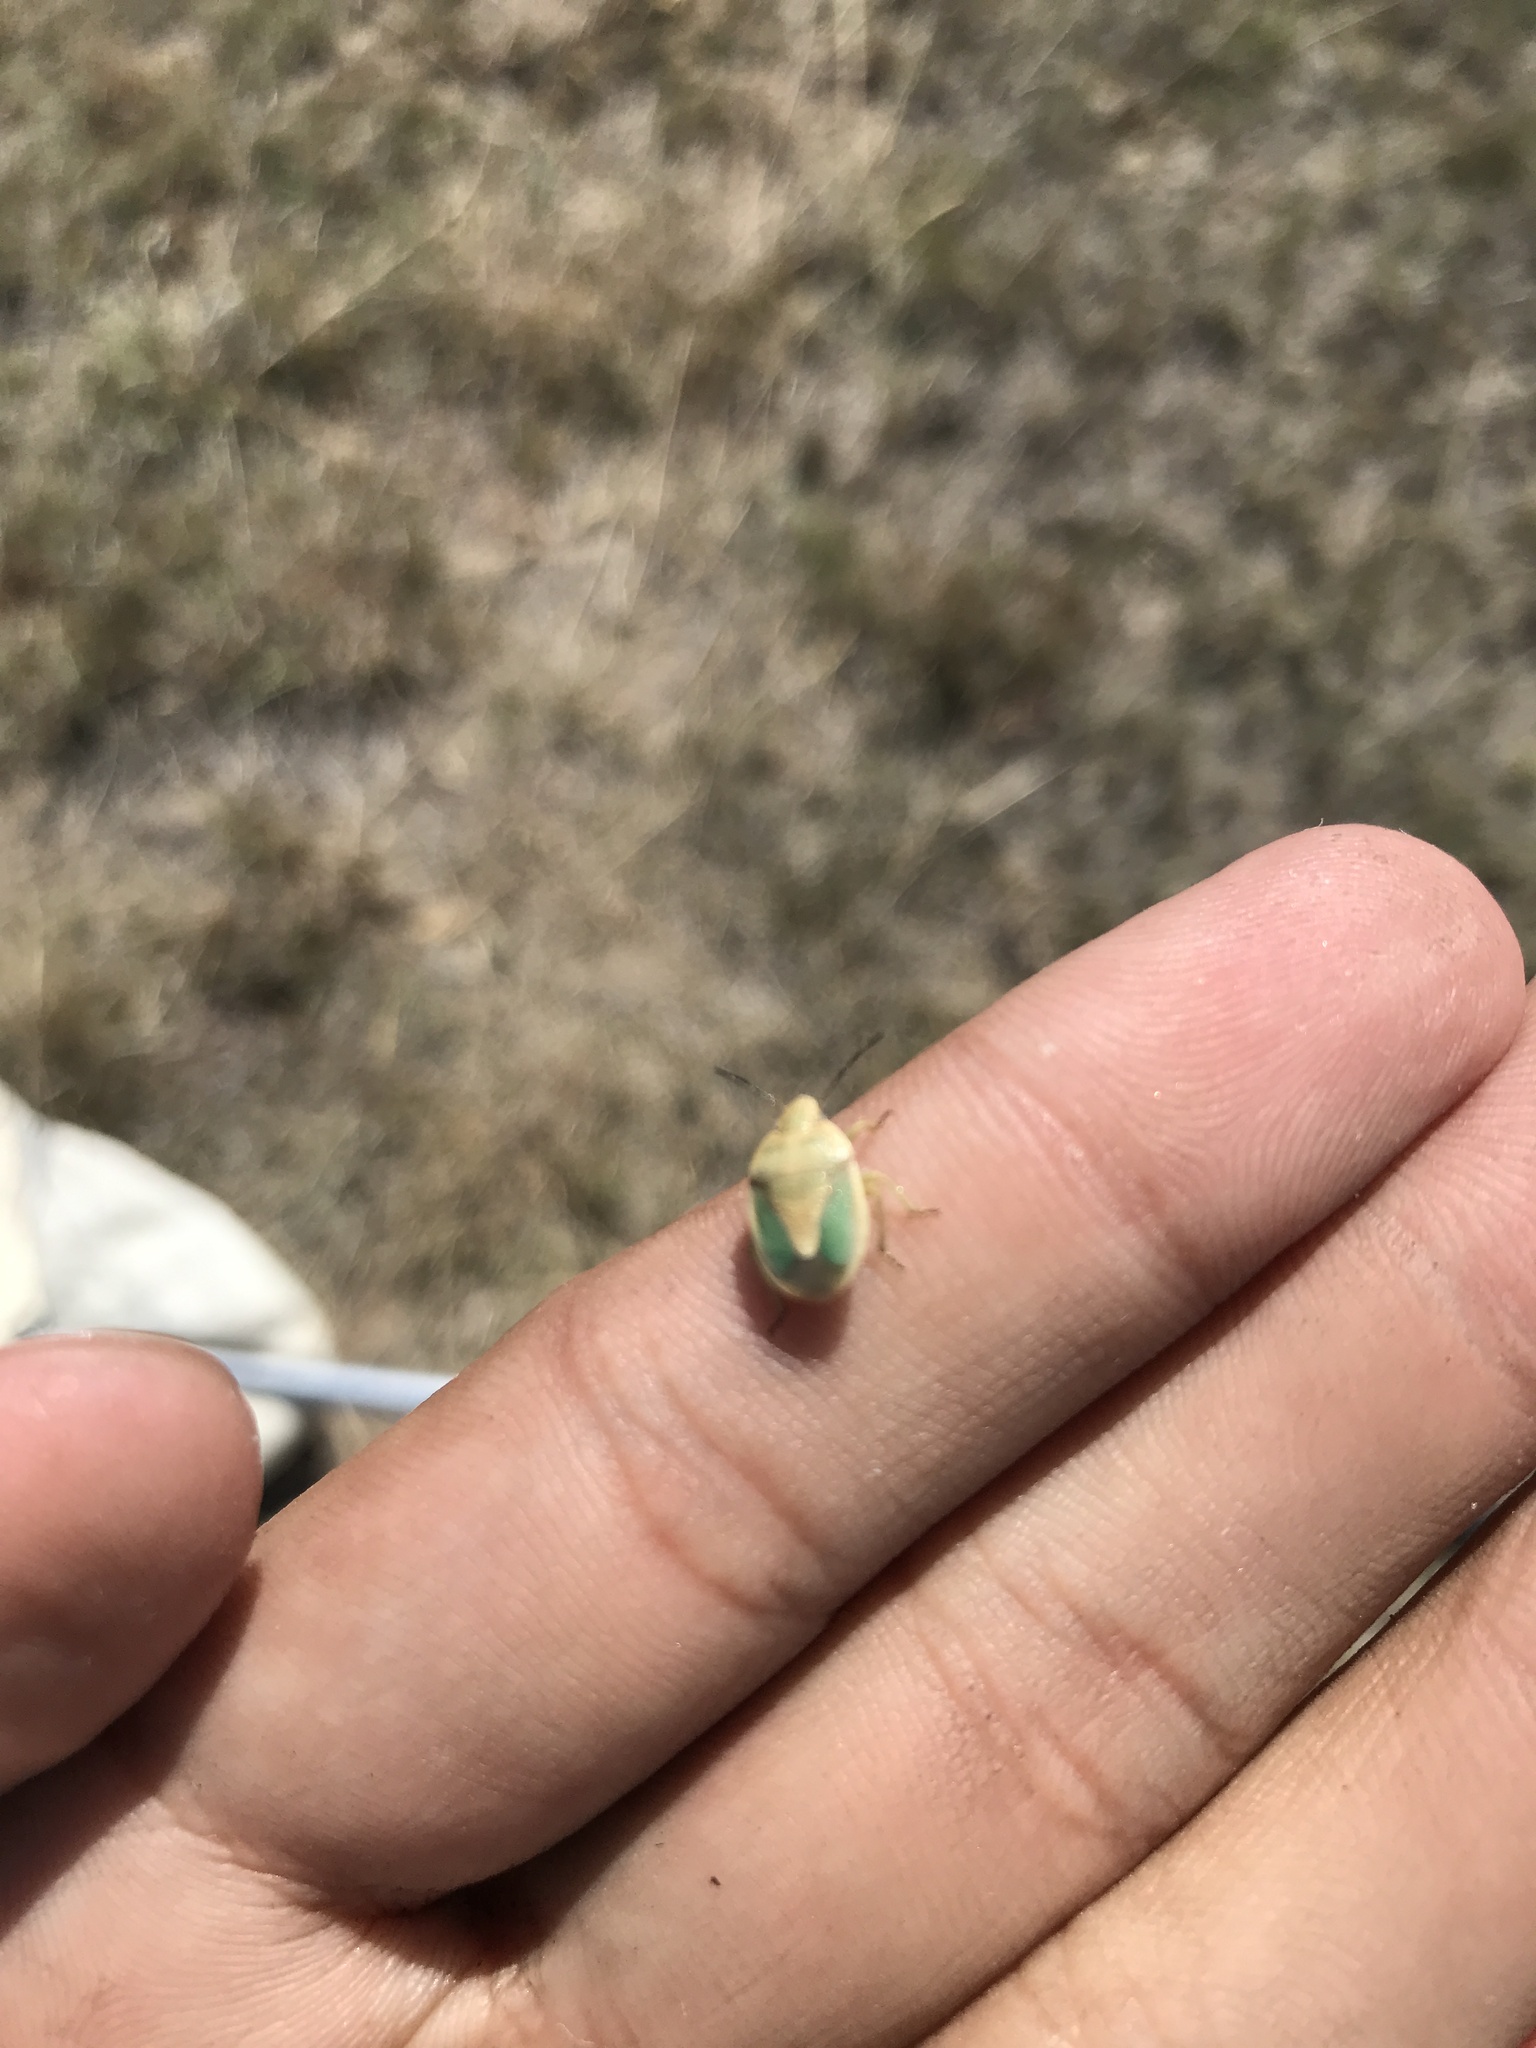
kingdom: Animalia
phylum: Arthropoda
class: Insecta
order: Hemiptera
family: Pentatomidae
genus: Chlorochroa
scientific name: Chlorochroa viridicata
